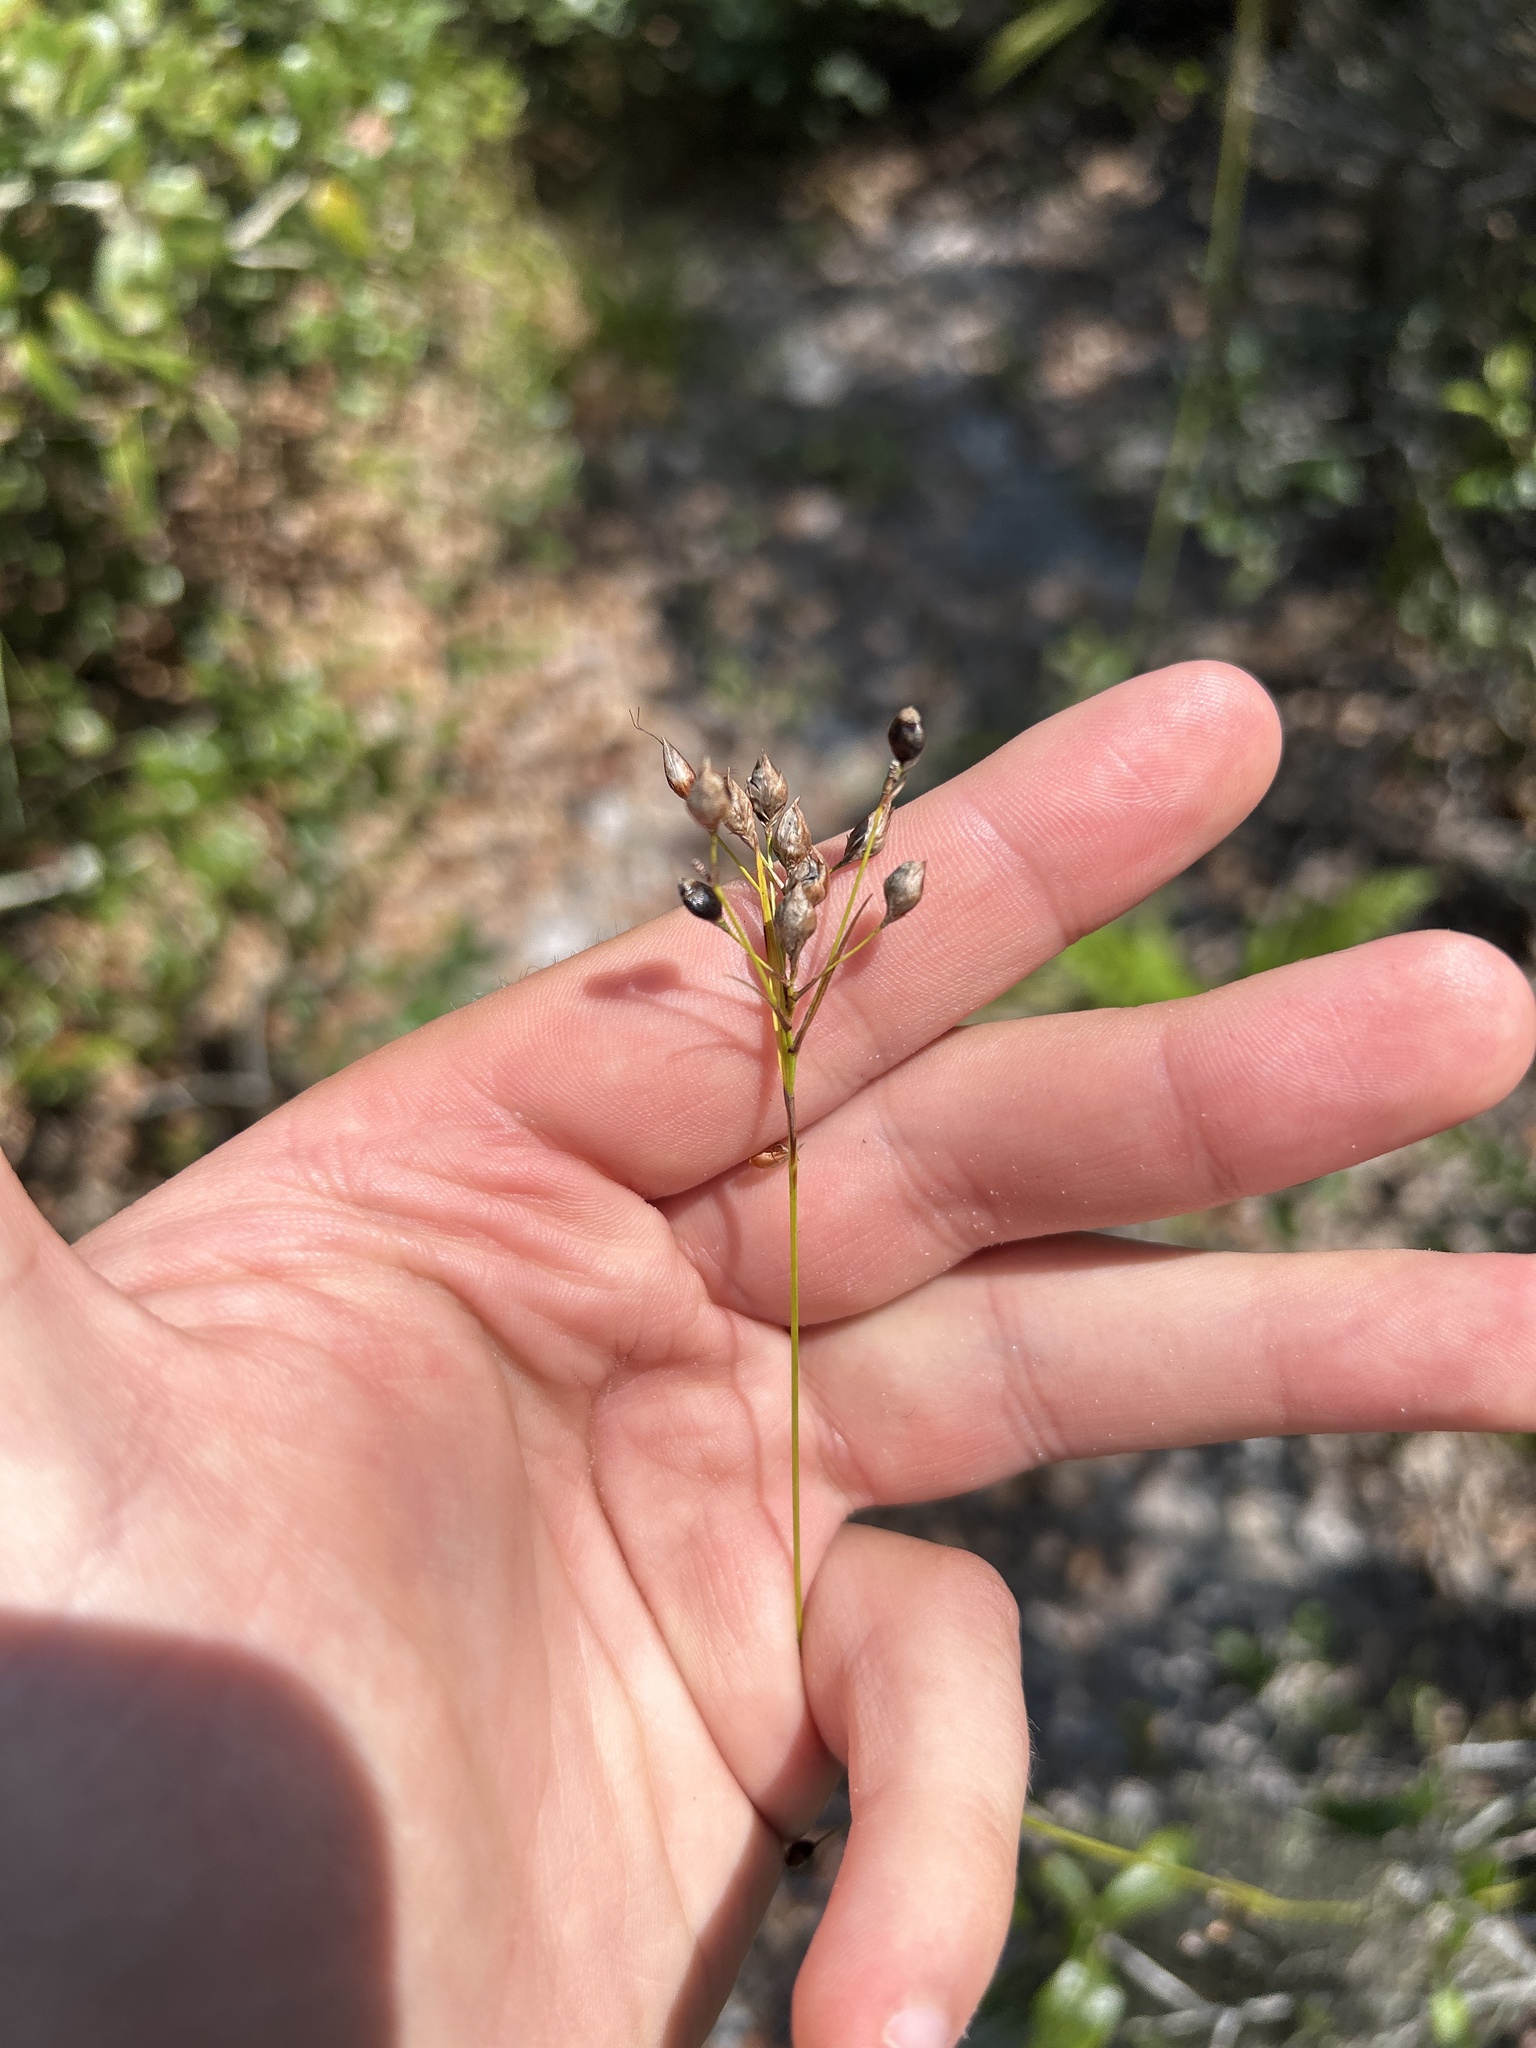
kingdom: Plantae
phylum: Tracheophyta
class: Liliopsida
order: Poales
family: Cyperaceae
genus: Rhynchospora
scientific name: Rhynchospora megalocarpa
